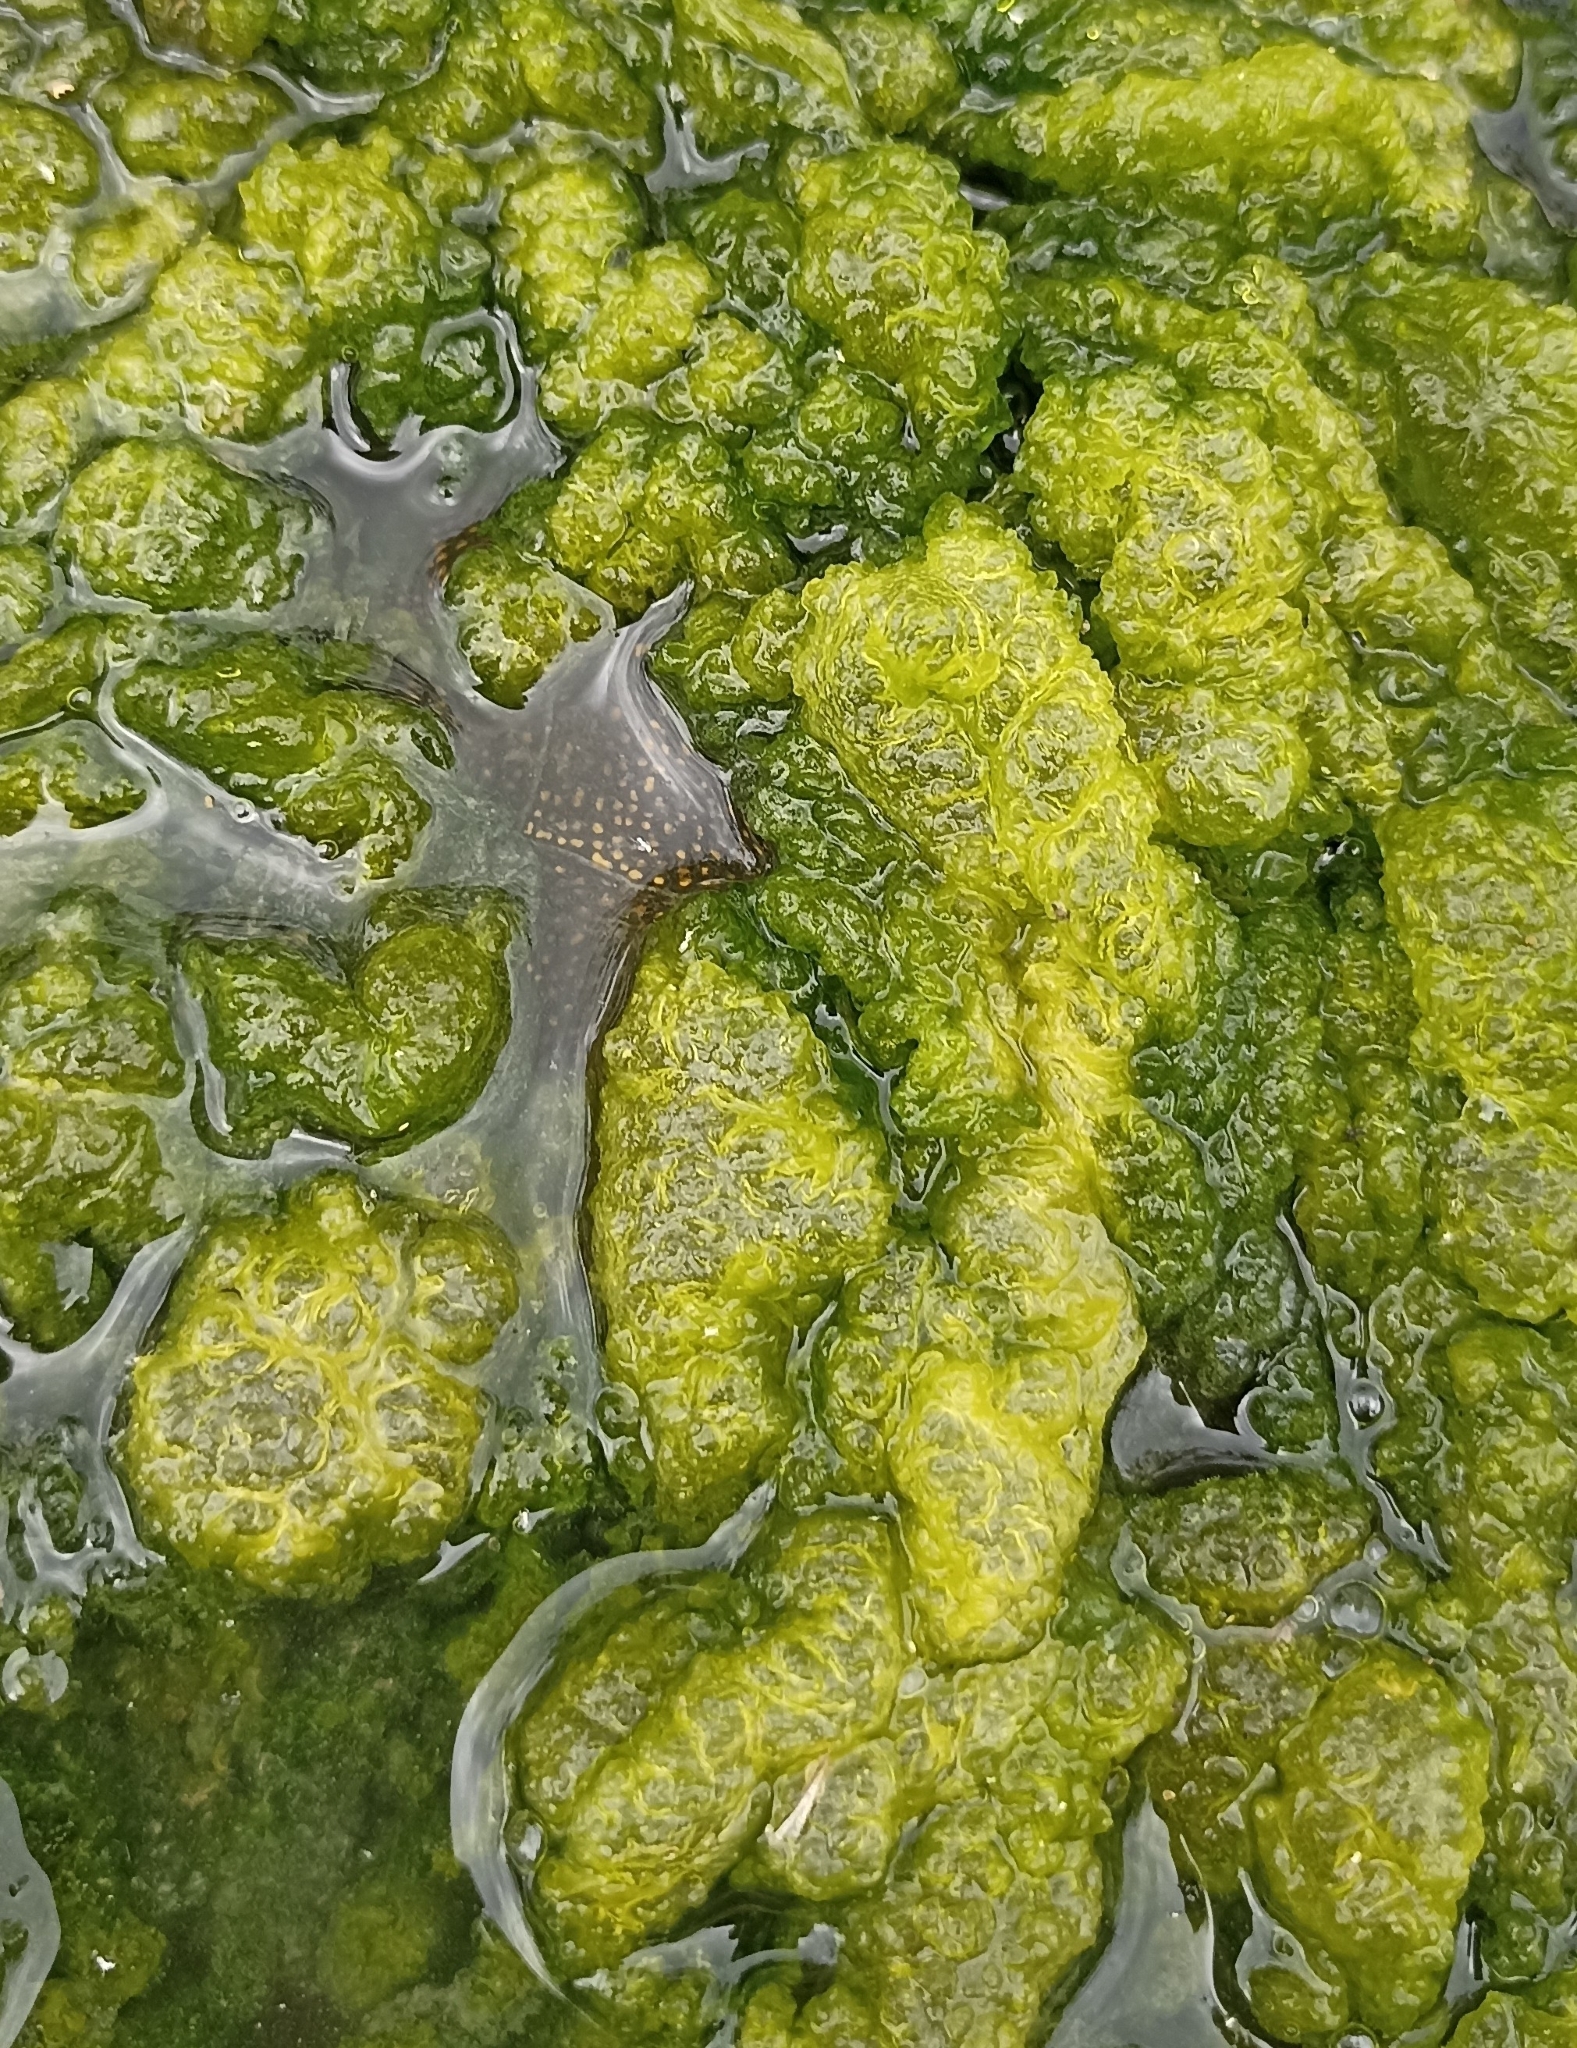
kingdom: Animalia
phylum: Chordata
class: Testudines
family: Emydidae
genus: Emys
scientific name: Emys orbicularis
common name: European pond turtle
